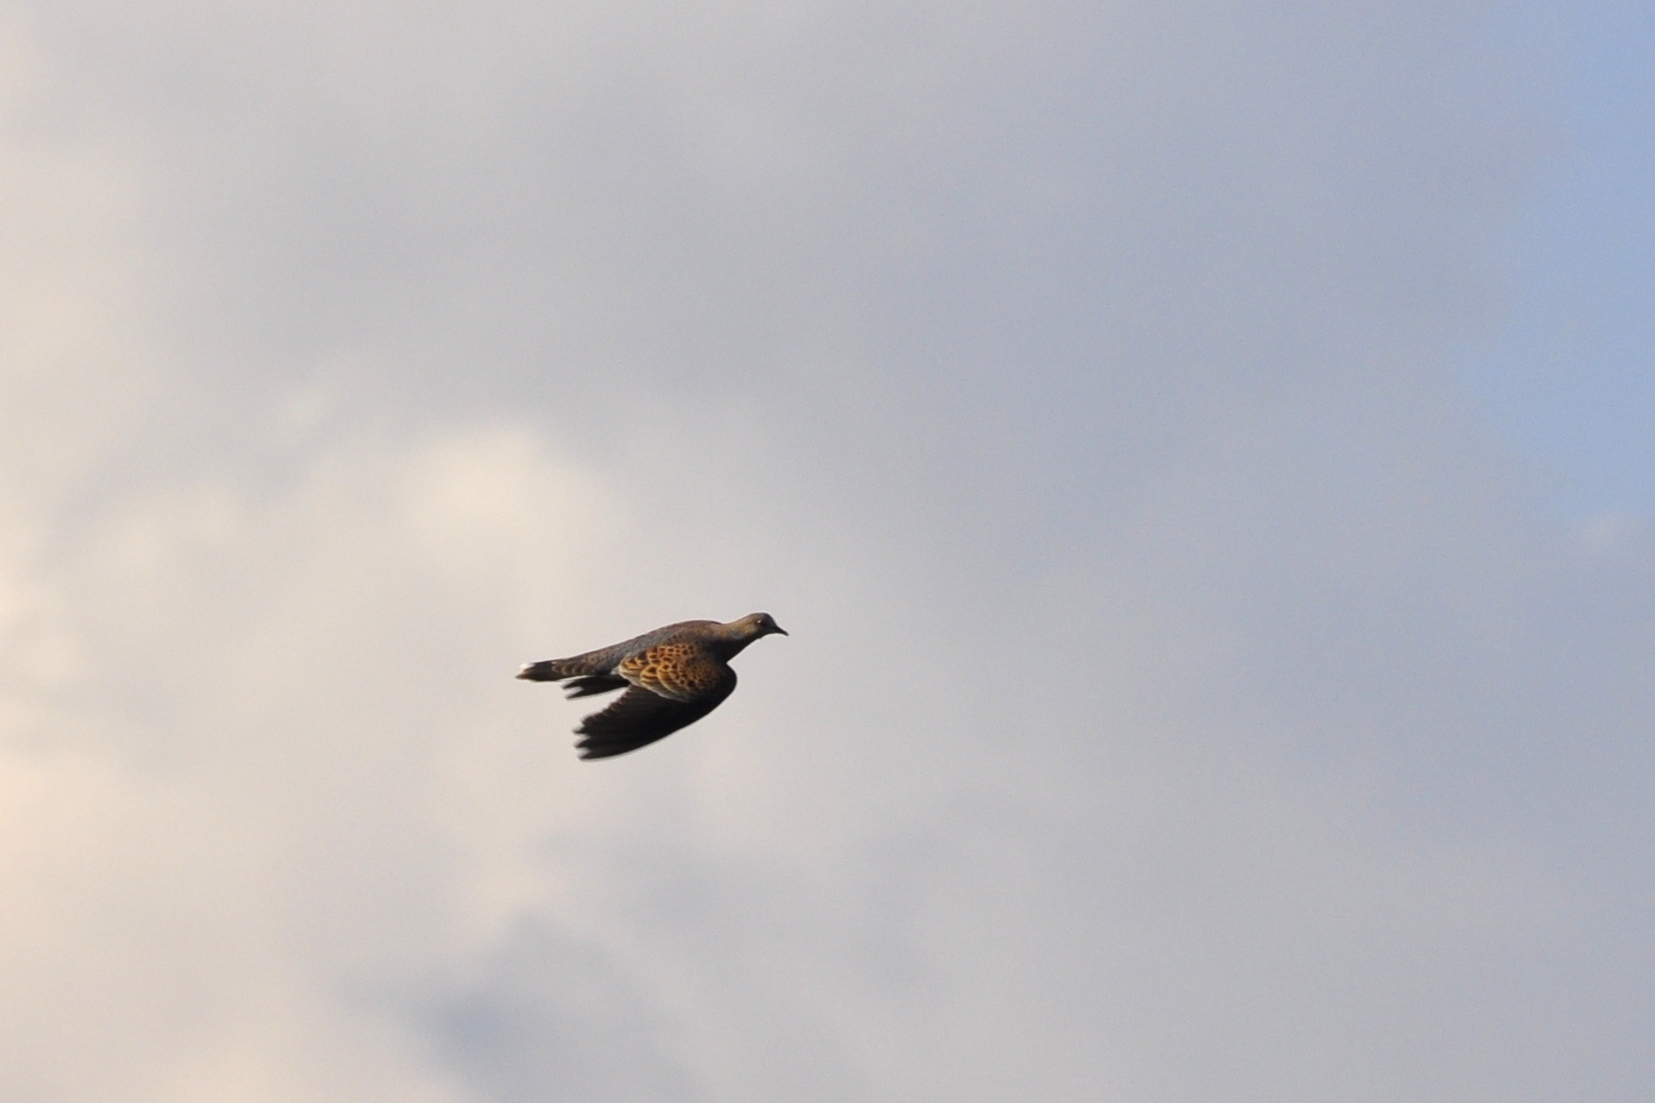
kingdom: Animalia
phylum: Chordata
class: Aves
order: Columbiformes
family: Columbidae
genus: Streptopelia
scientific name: Streptopelia orientalis
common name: Oriental turtle dove
